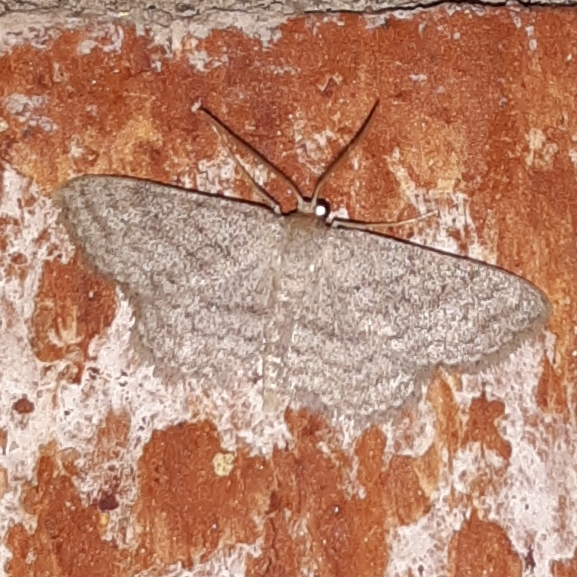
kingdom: Animalia
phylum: Arthropoda
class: Insecta
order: Lepidoptera
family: Geometridae
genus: Lobocleta
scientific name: Lobocleta ossularia
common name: Drab brown wave
